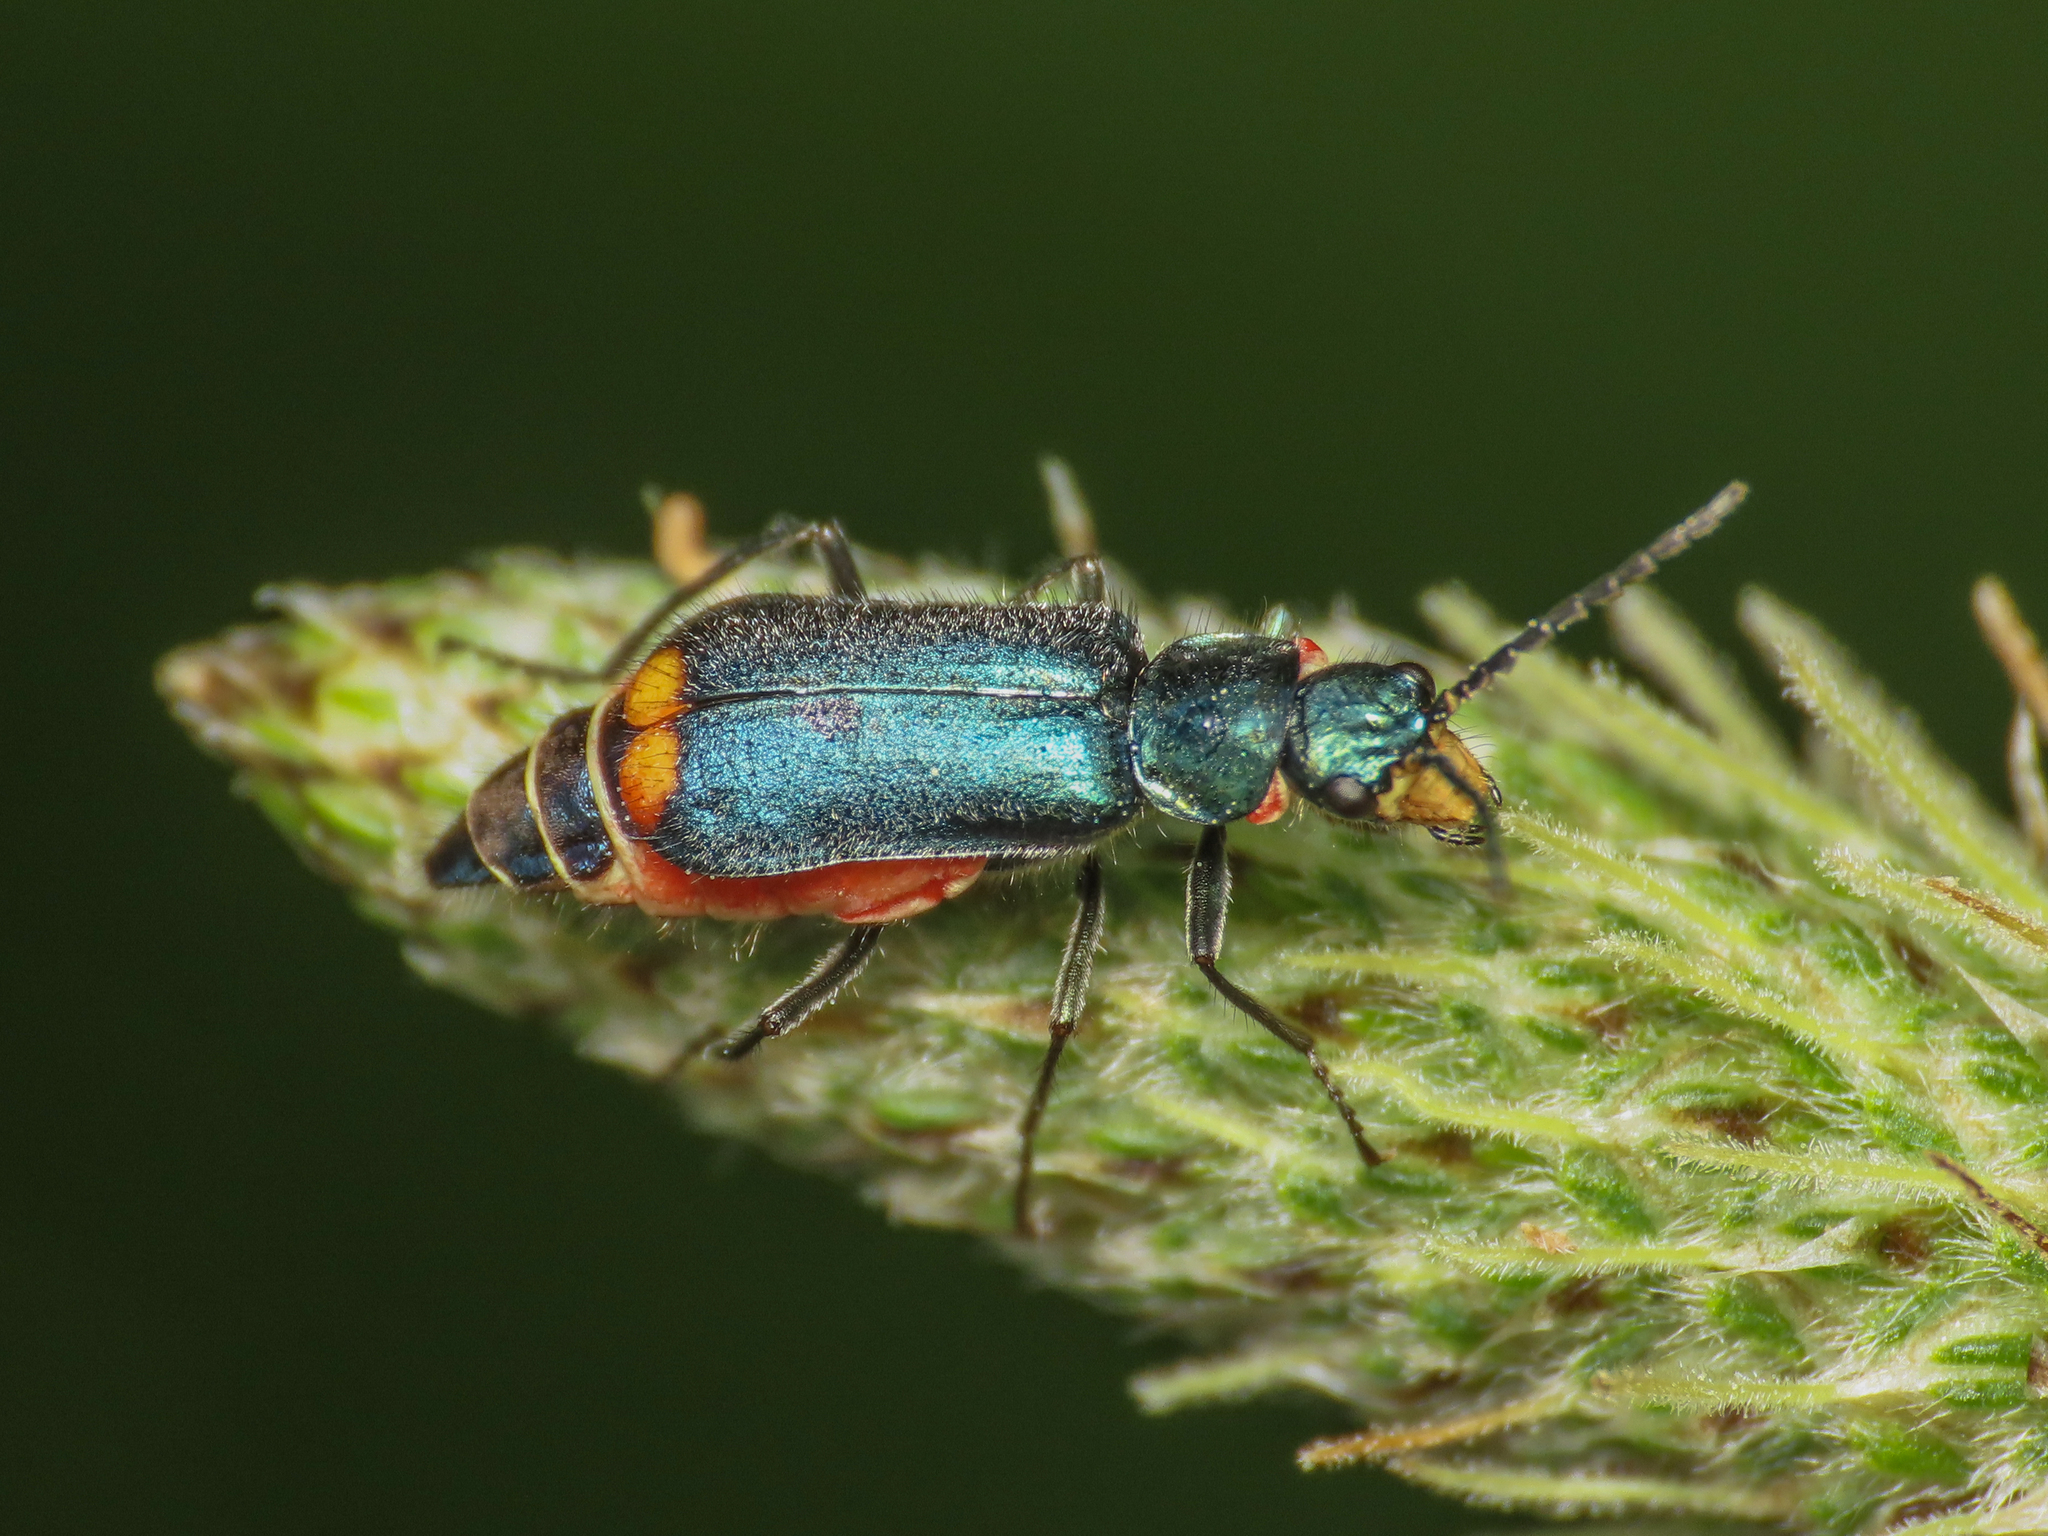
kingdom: Animalia
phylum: Arthropoda
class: Insecta
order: Coleoptera
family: Melyridae
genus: Malachius
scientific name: Malachius australis
